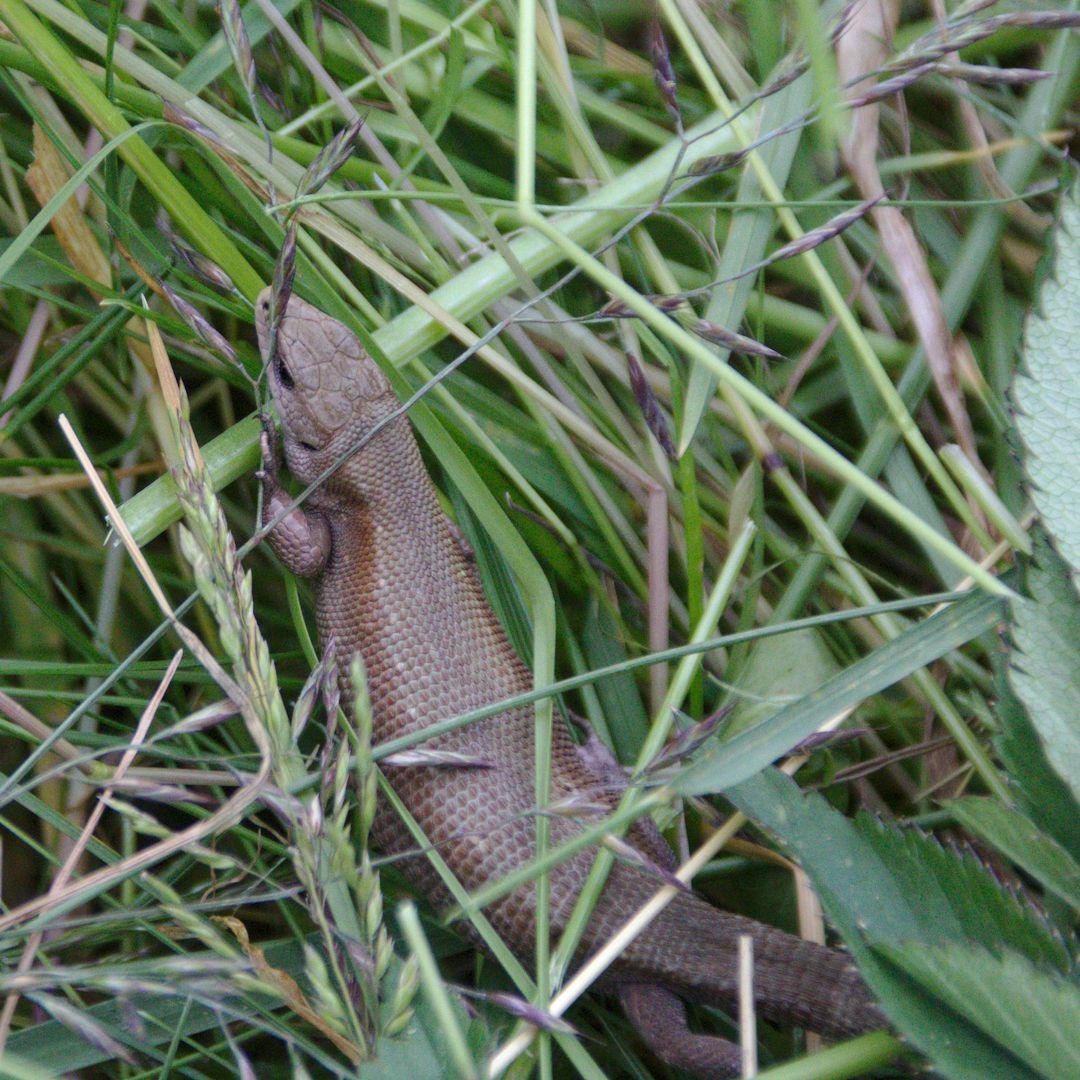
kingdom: Animalia
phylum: Chordata
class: Squamata
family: Lacertidae
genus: Zootoca
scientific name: Zootoca vivipara
